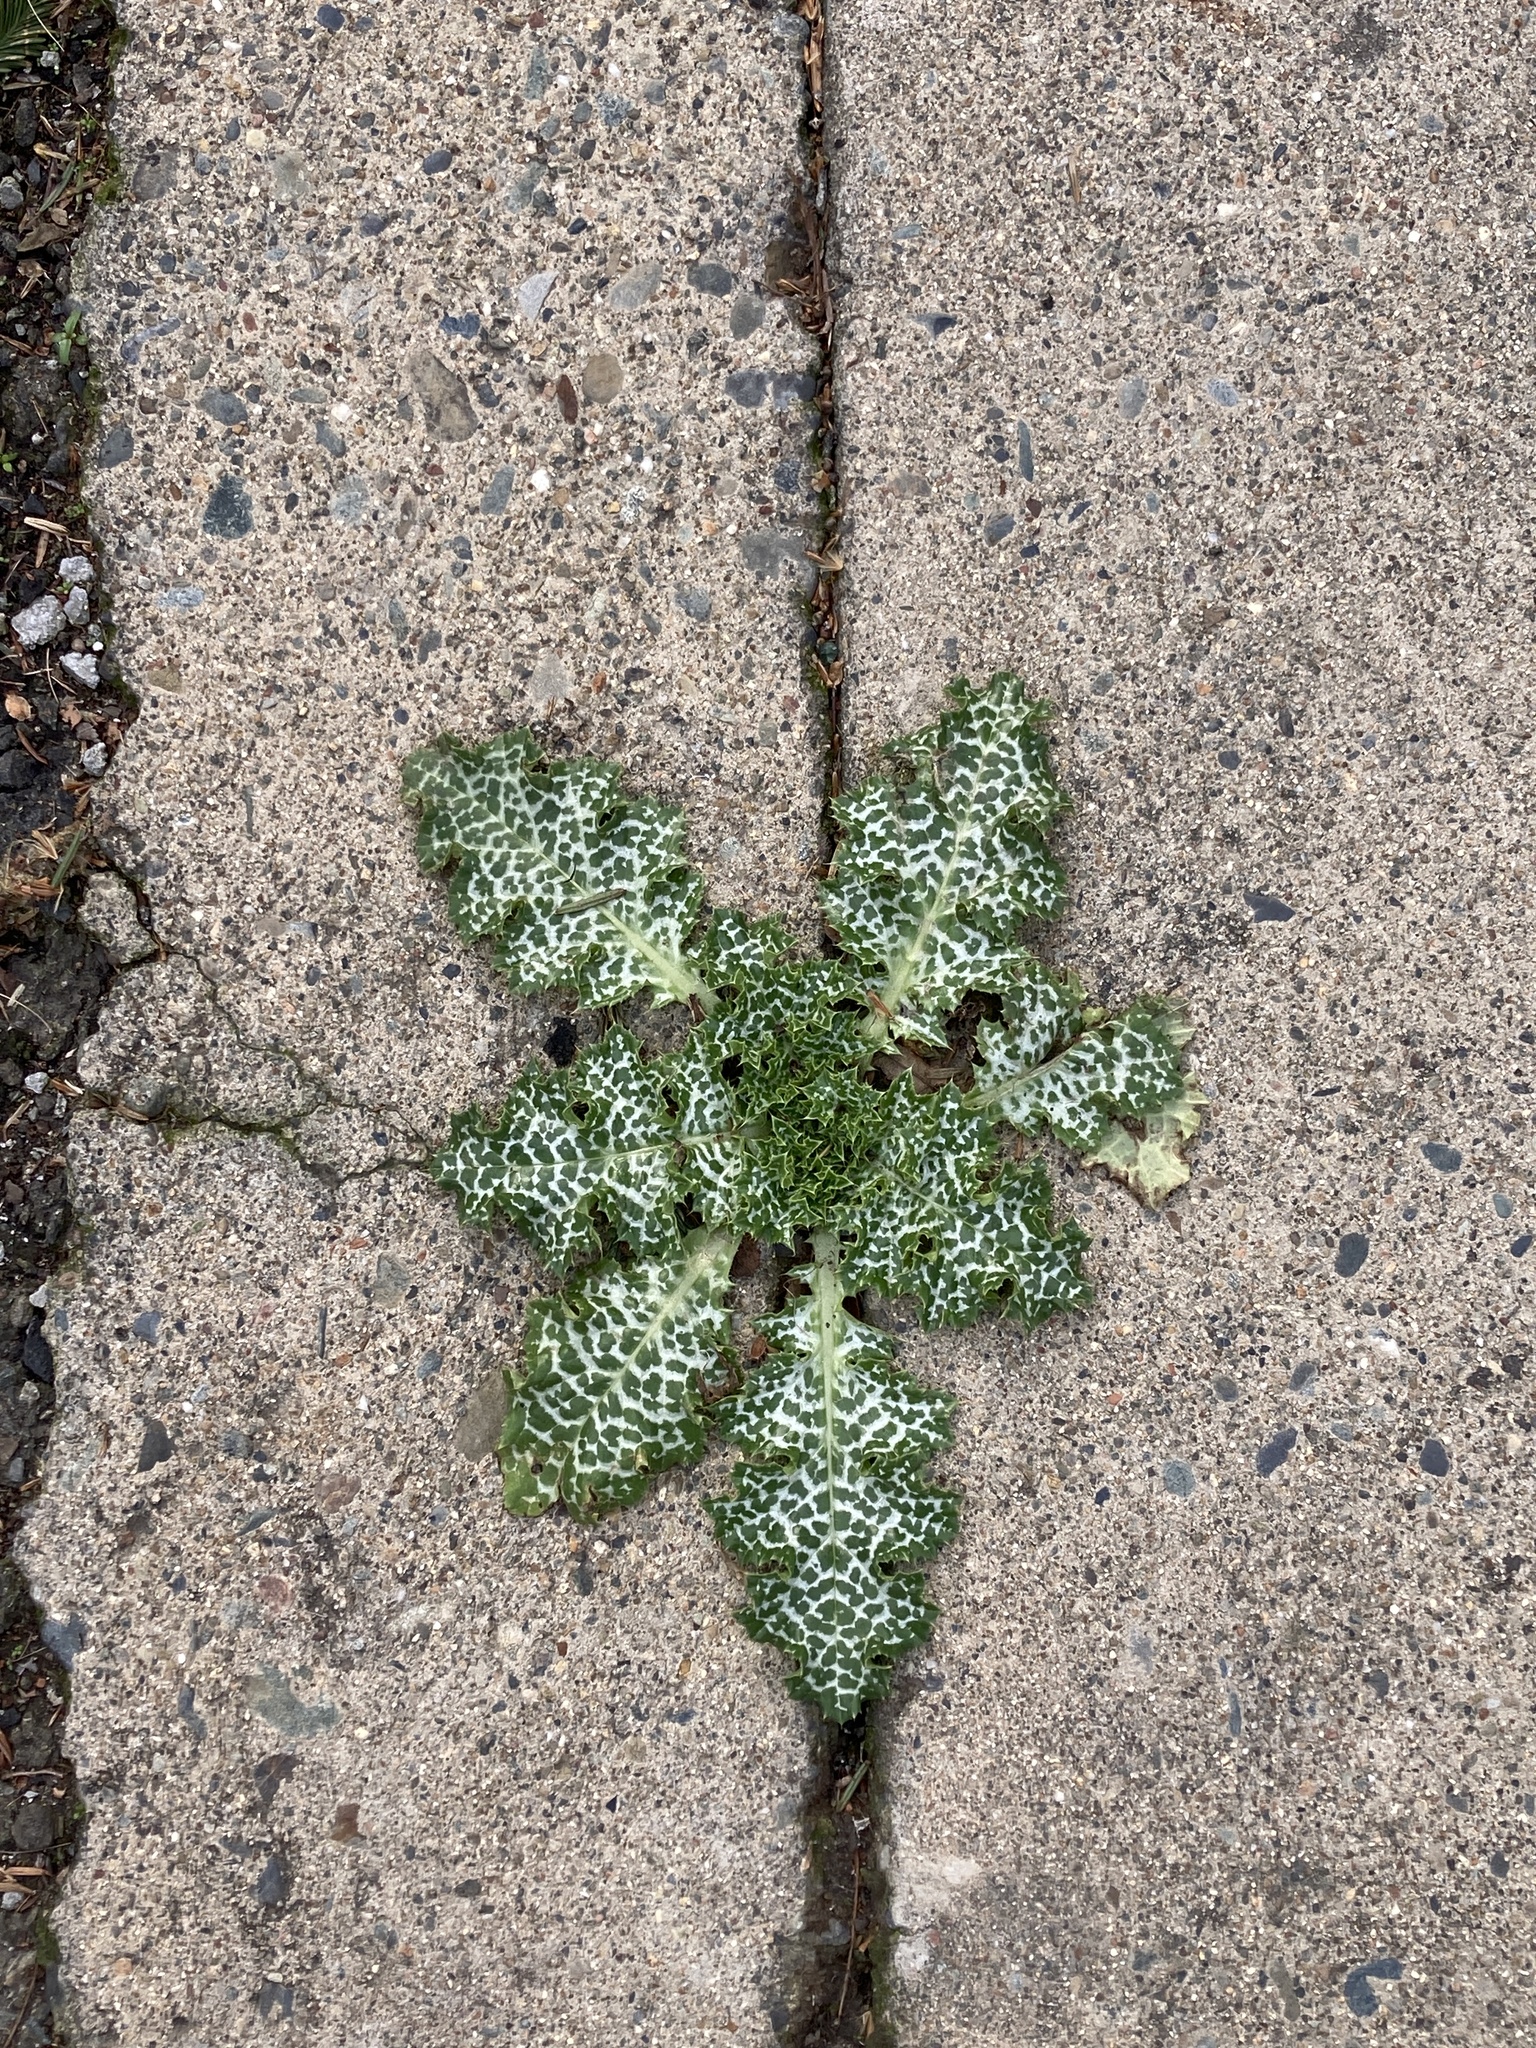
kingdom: Plantae
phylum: Tracheophyta
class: Magnoliopsida
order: Asterales
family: Asteraceae
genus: Silybum
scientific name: Silybum marianum
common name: Milk thistle
